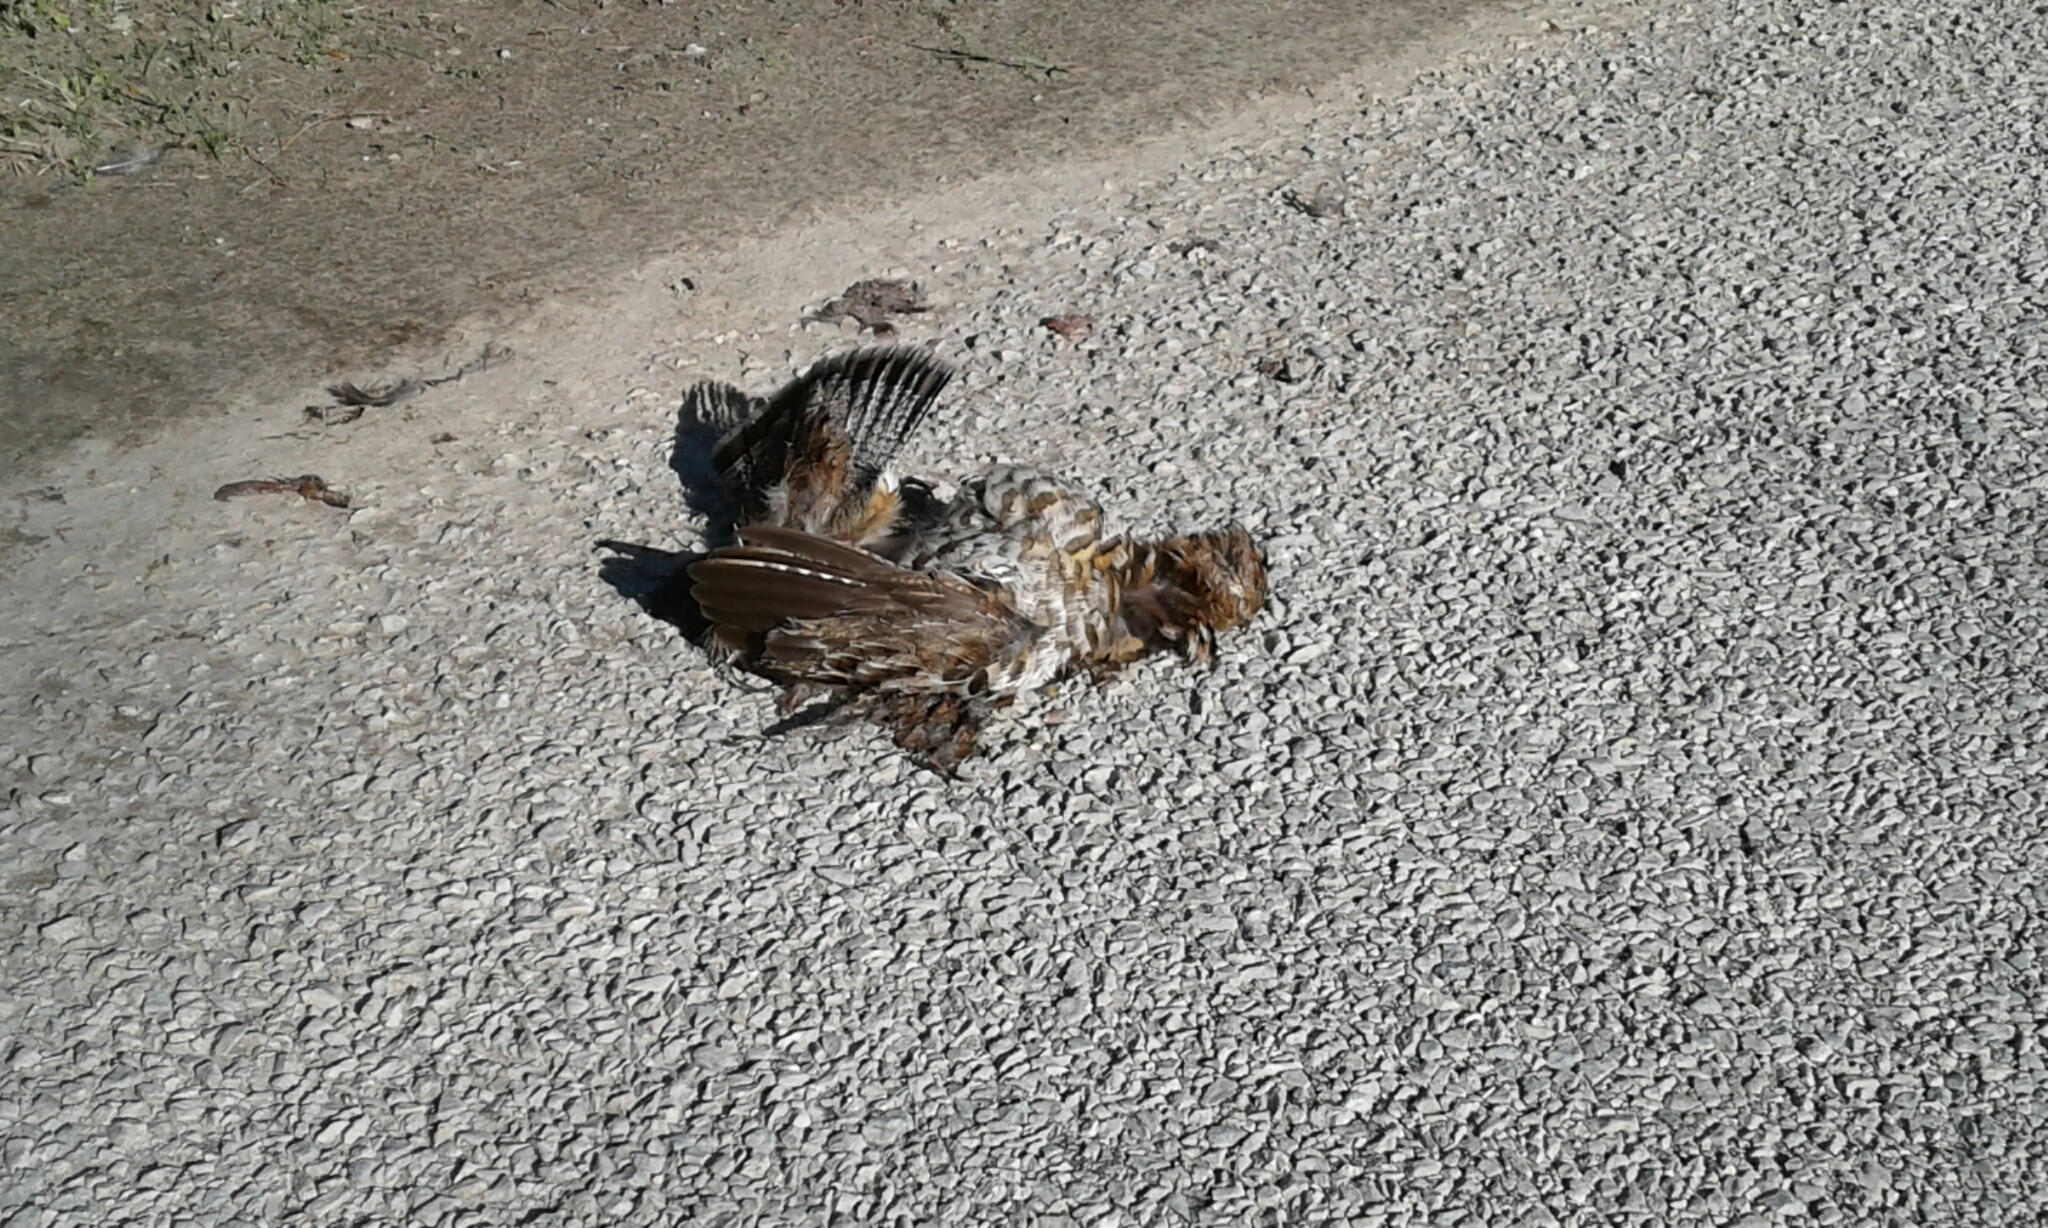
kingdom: Animalia
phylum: Chordata
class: Aves
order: Galliformes
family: Phasianidae
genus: Bonasa
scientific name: Bonasa umbellus
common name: Ruffed grouse
